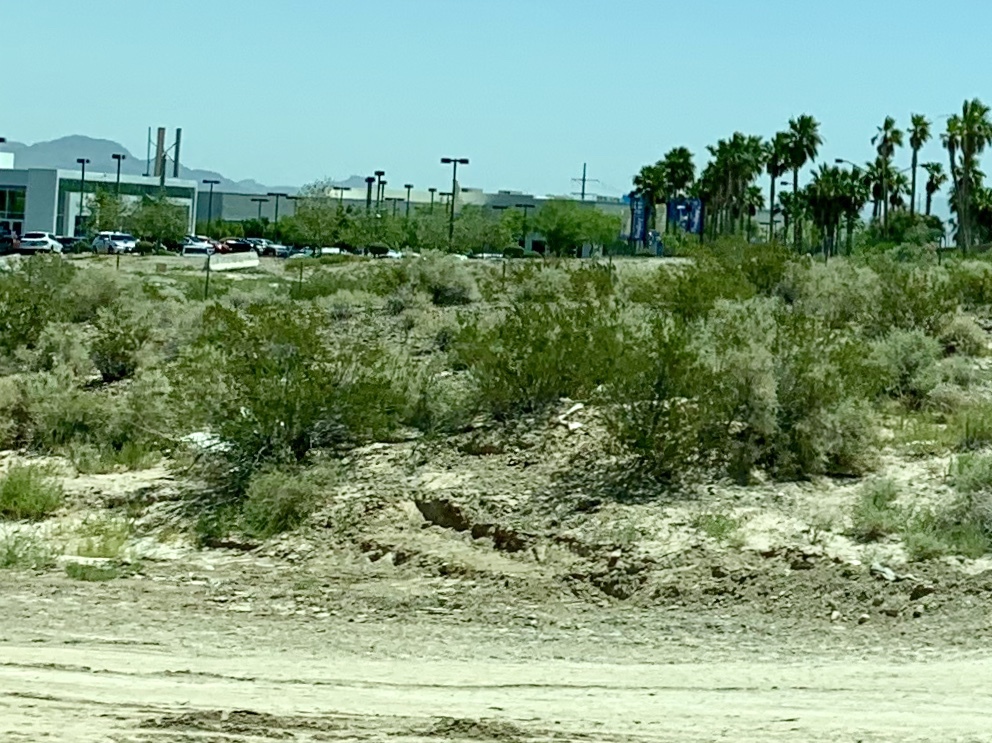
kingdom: Plantae
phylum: Tracheophyta
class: Magnoliopsida
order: Zygophyllales
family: Zygophyllaceae
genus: Larrea
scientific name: Larrea tridentata
